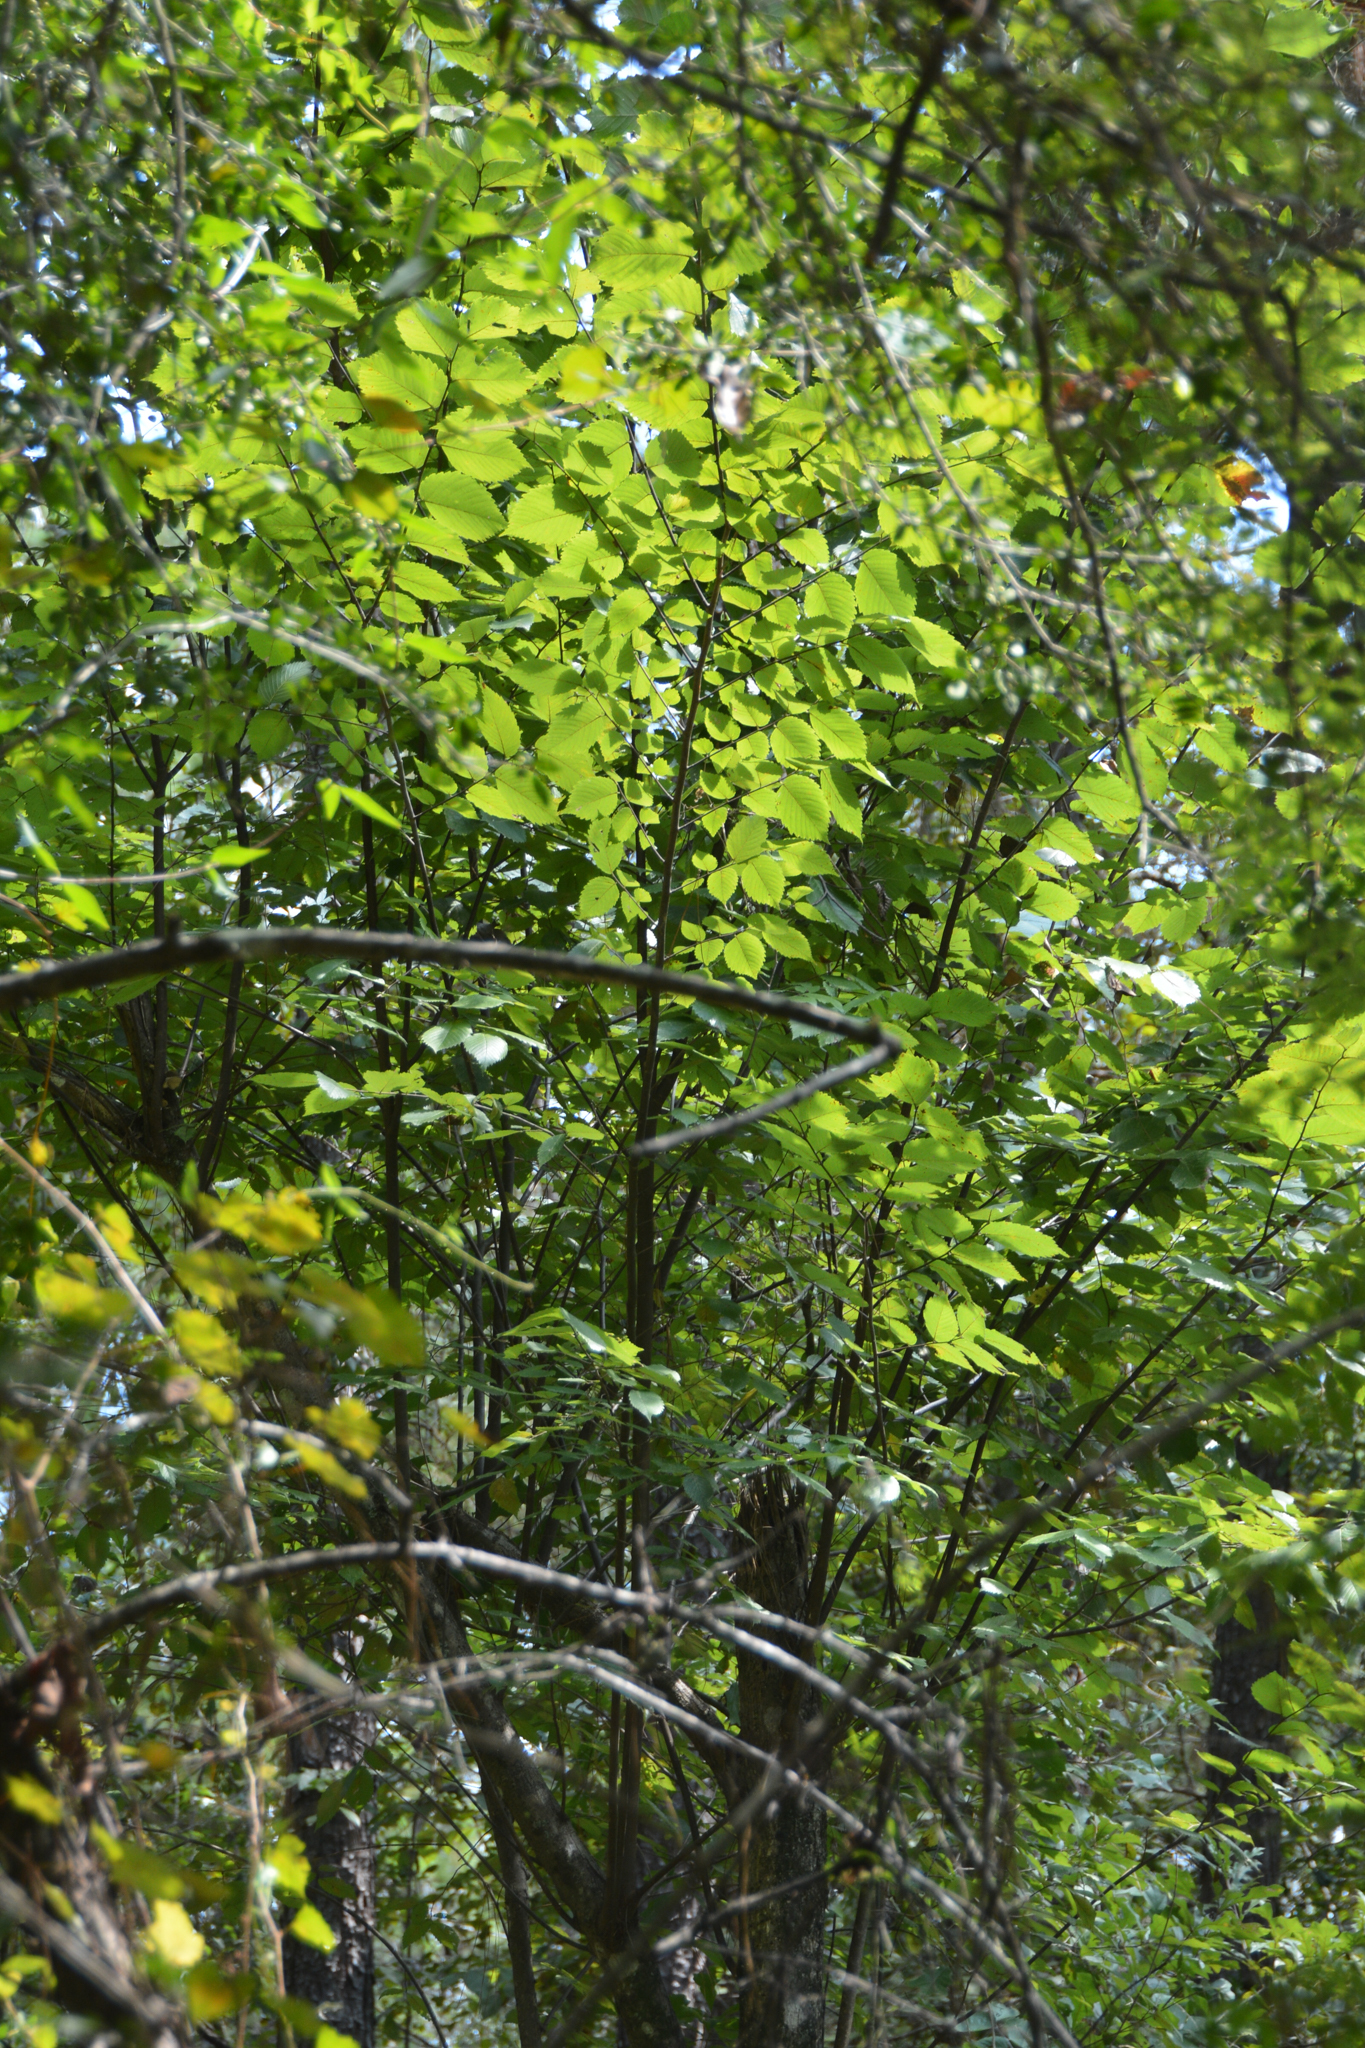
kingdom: Plantae
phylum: Tracheophyta
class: Magnoliopsida
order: Rosales
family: Ulmaceae
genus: Ulmus
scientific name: Ulmus americana
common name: American elm
